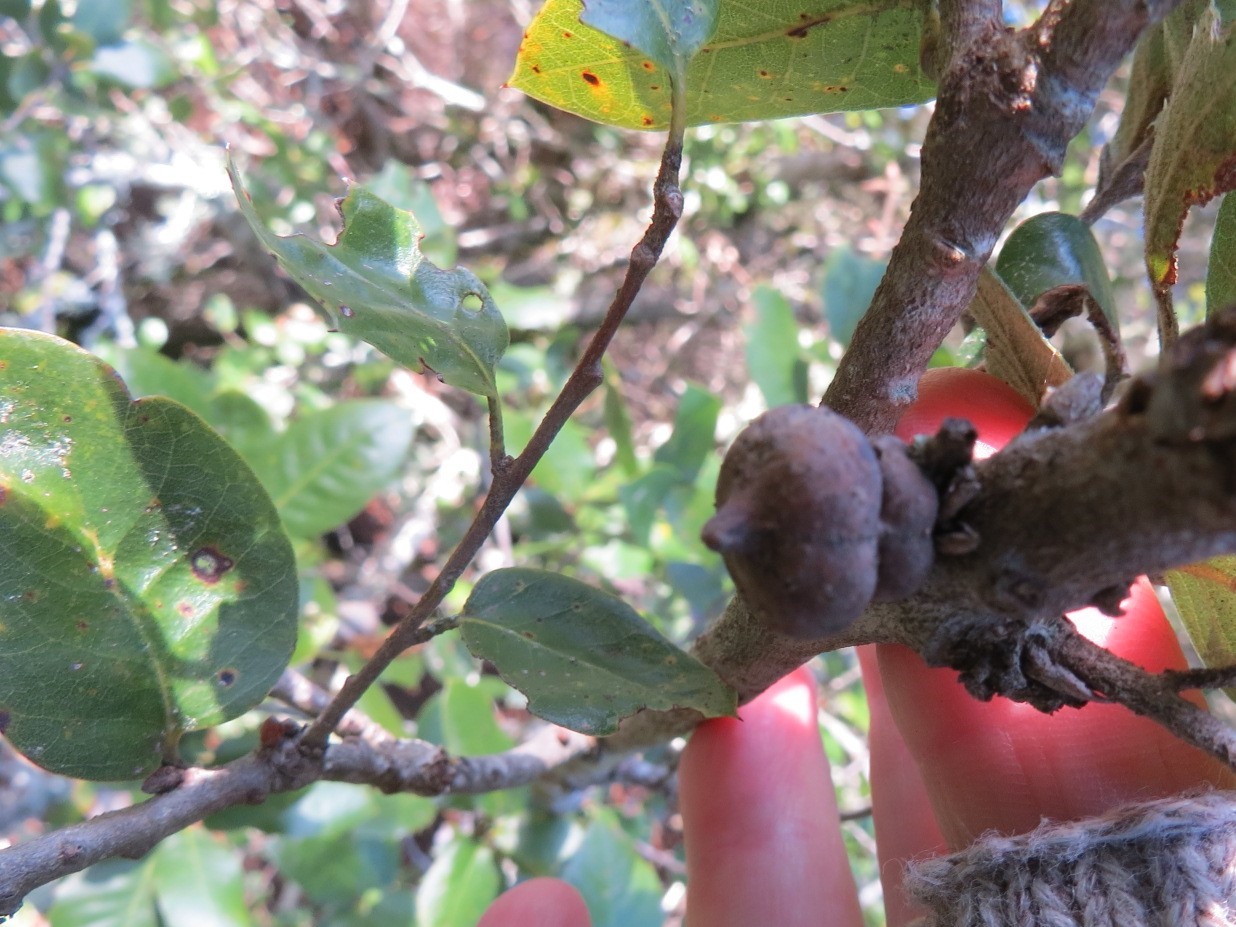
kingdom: Animalia
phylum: Arthropoda
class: Insecta
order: Hymenoptera
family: Cynipidae
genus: Heteroecus
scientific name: Heteroecus
